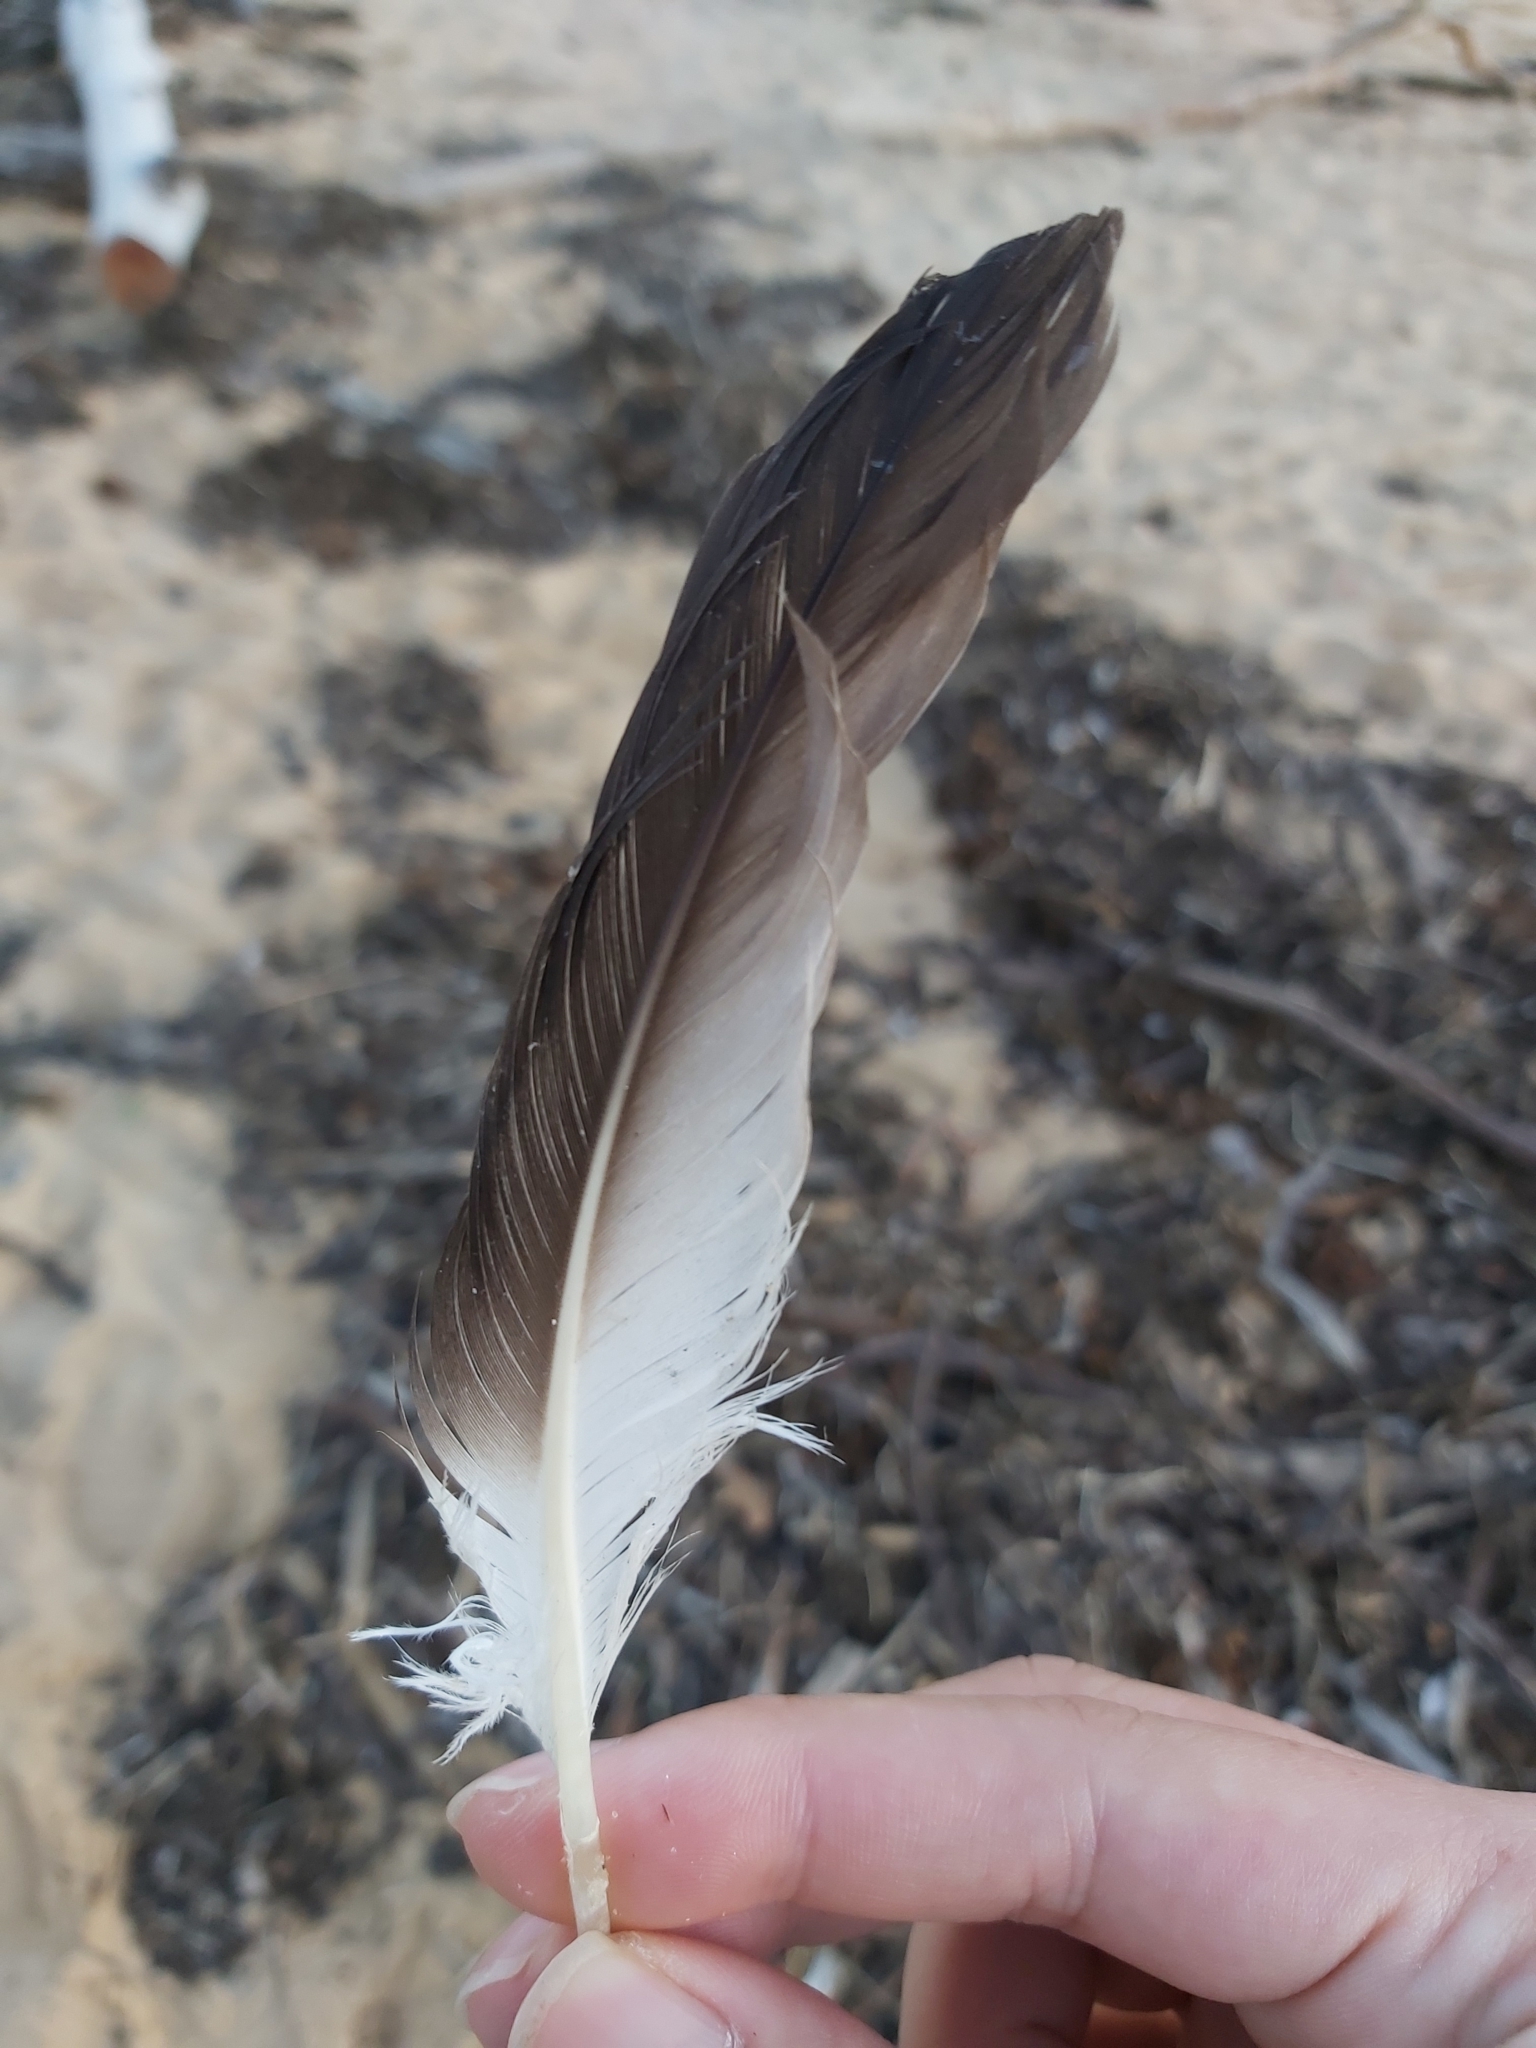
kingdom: Animalia
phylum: Chordata
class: Aves
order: Suliformes
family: Sulidae
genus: Morus
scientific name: Morus serrator
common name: Australasian gannet
